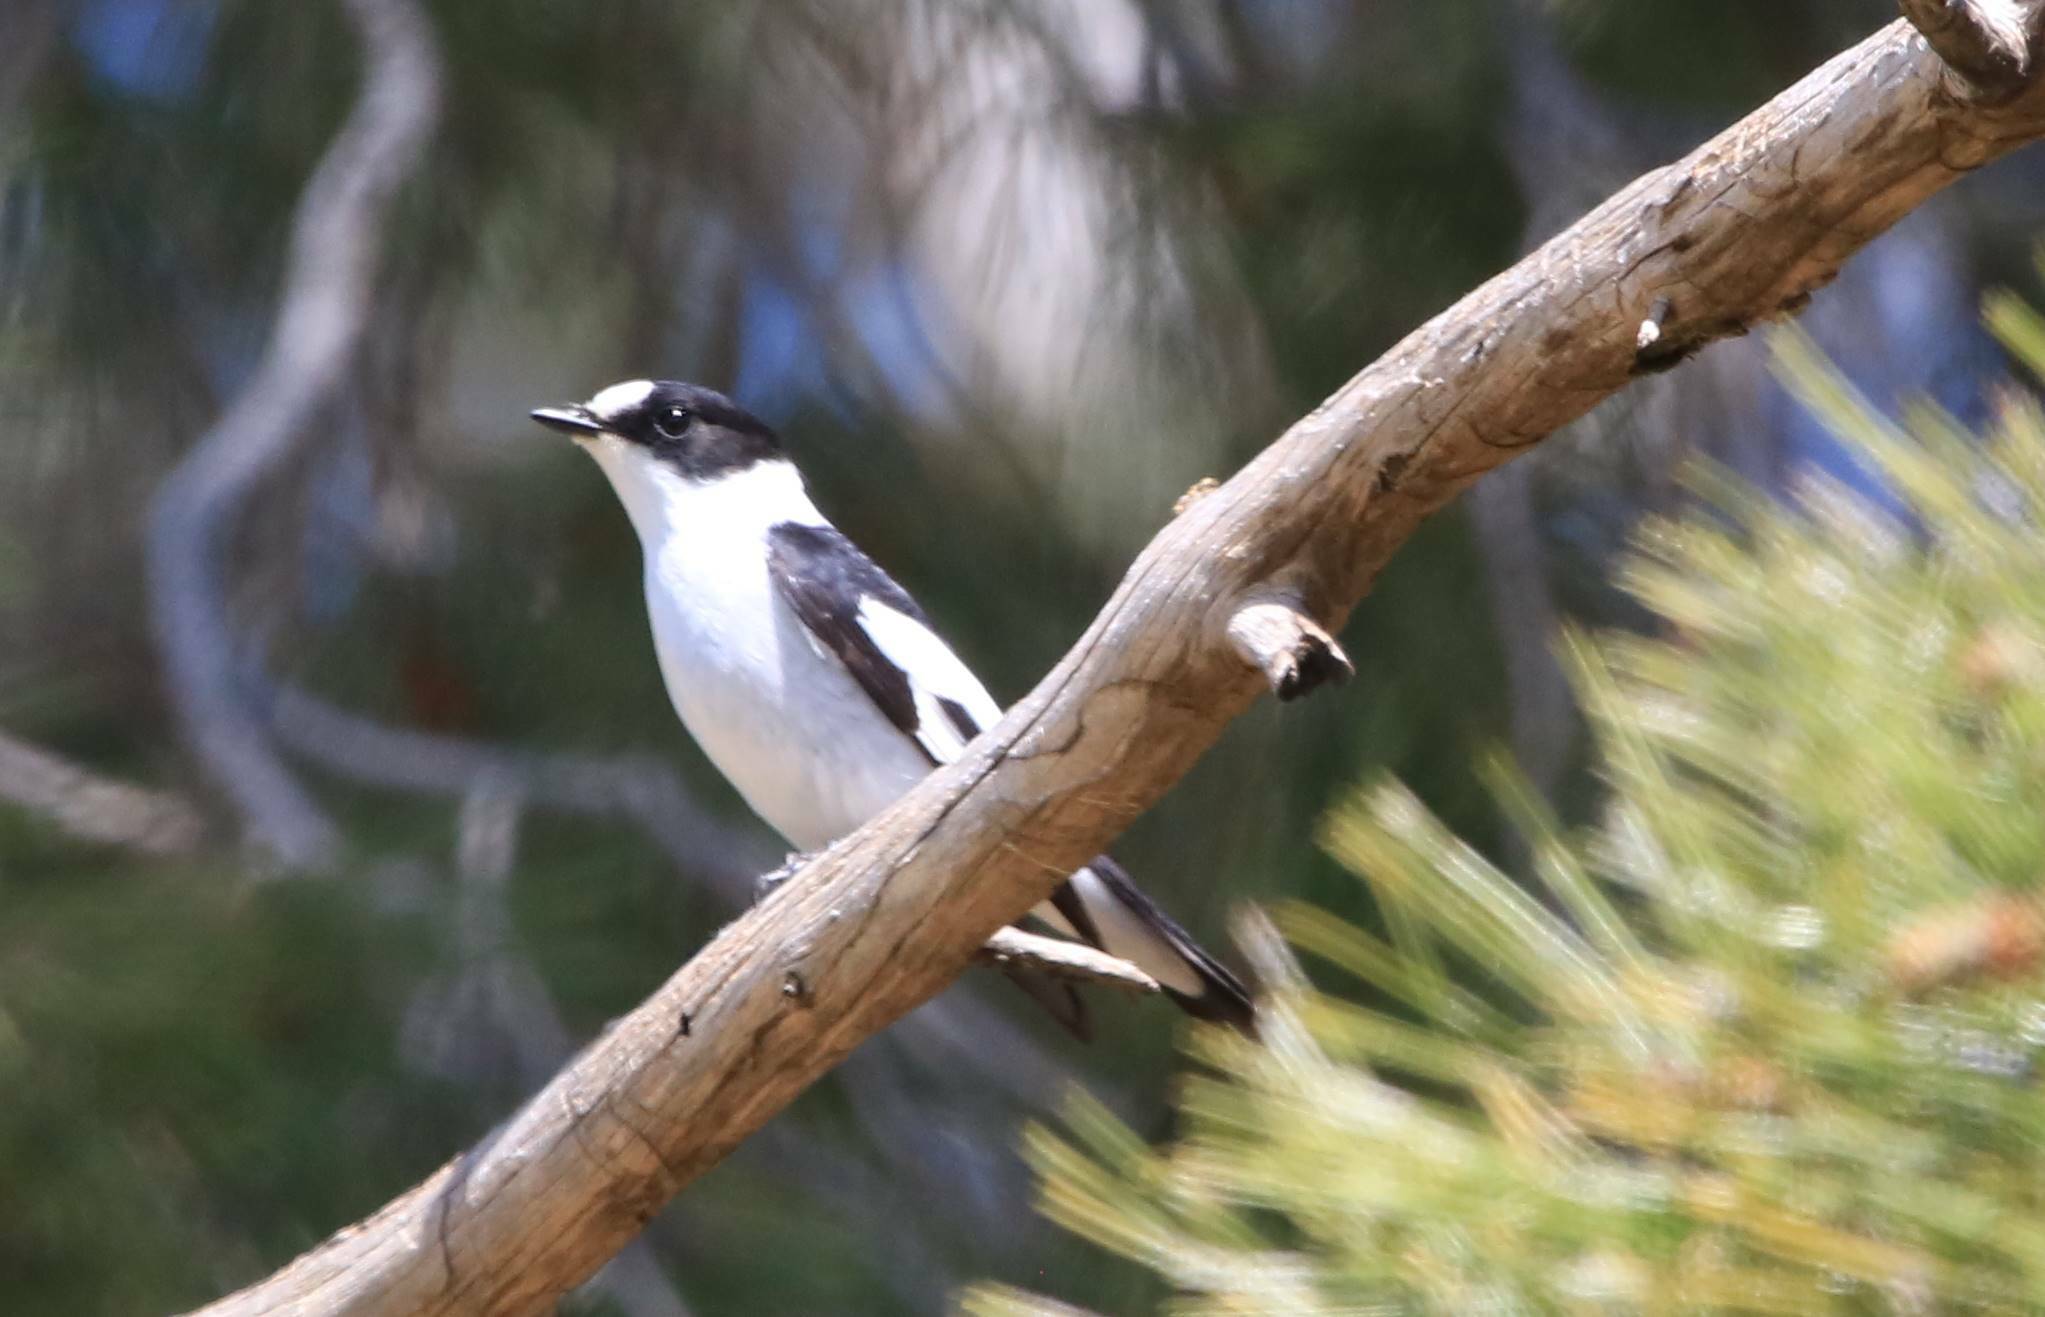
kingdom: Animalia
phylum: Chordata
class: Aves
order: Passeriformes
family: Muscicapidae
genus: Ficedula
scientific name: Ficedula albicollis
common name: Collared flycatcher
